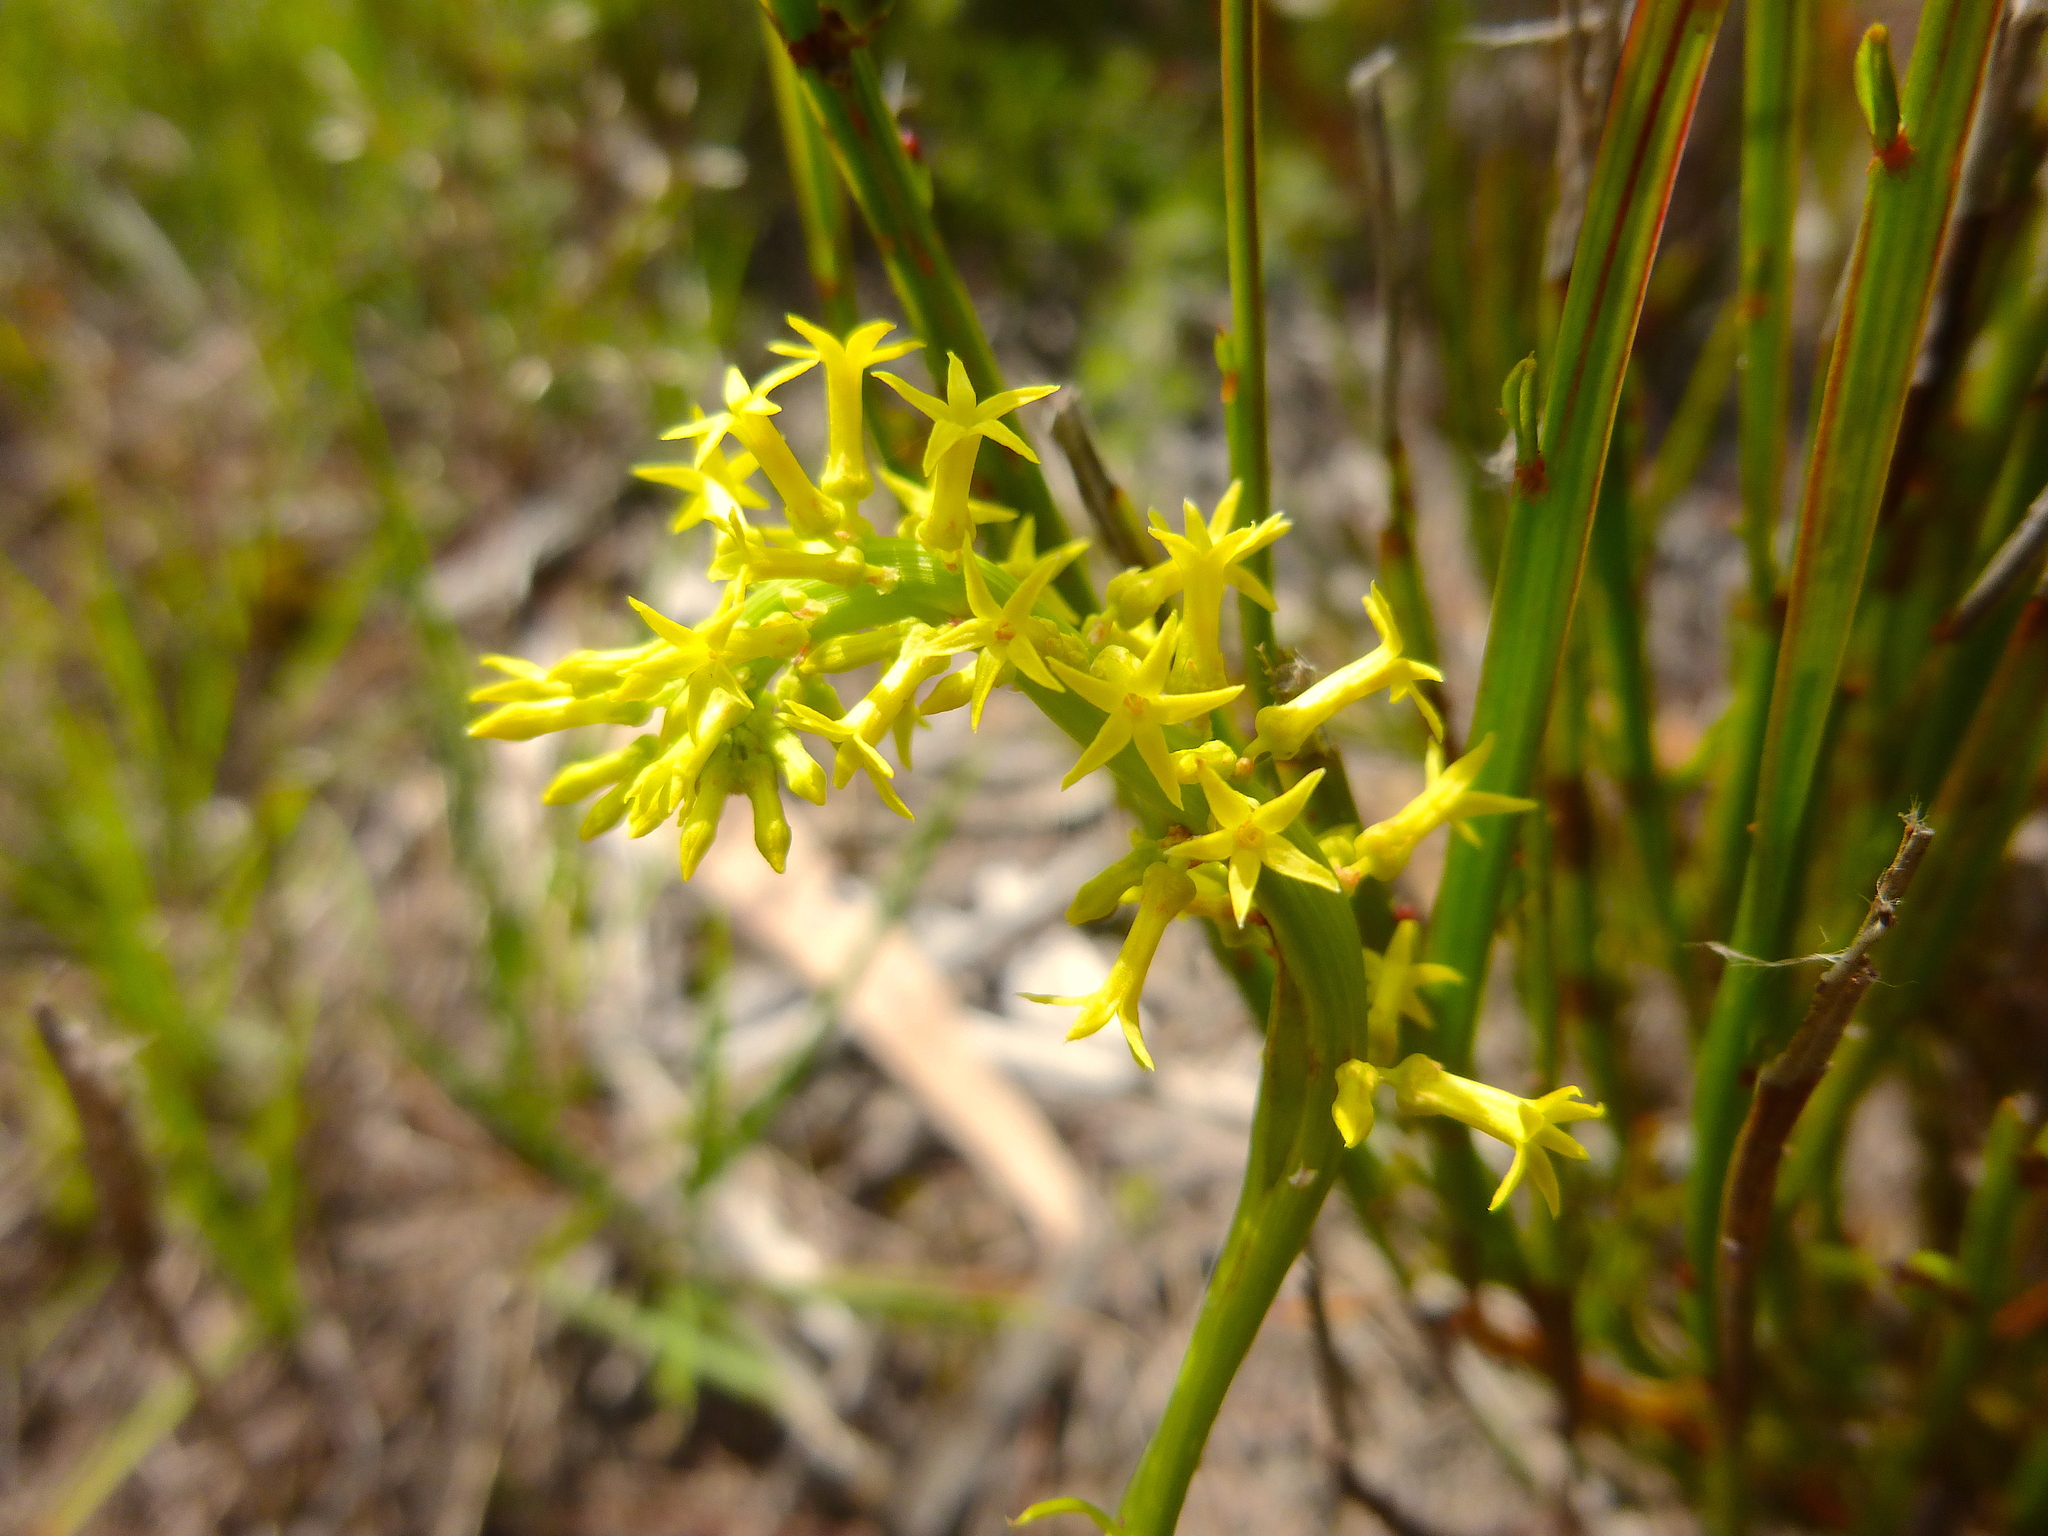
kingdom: Plantae
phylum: Tracheophyta
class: Magnoliopsida
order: Celastrales
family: Celastraceae
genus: Stackhousia
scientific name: Stackhousia viminea
